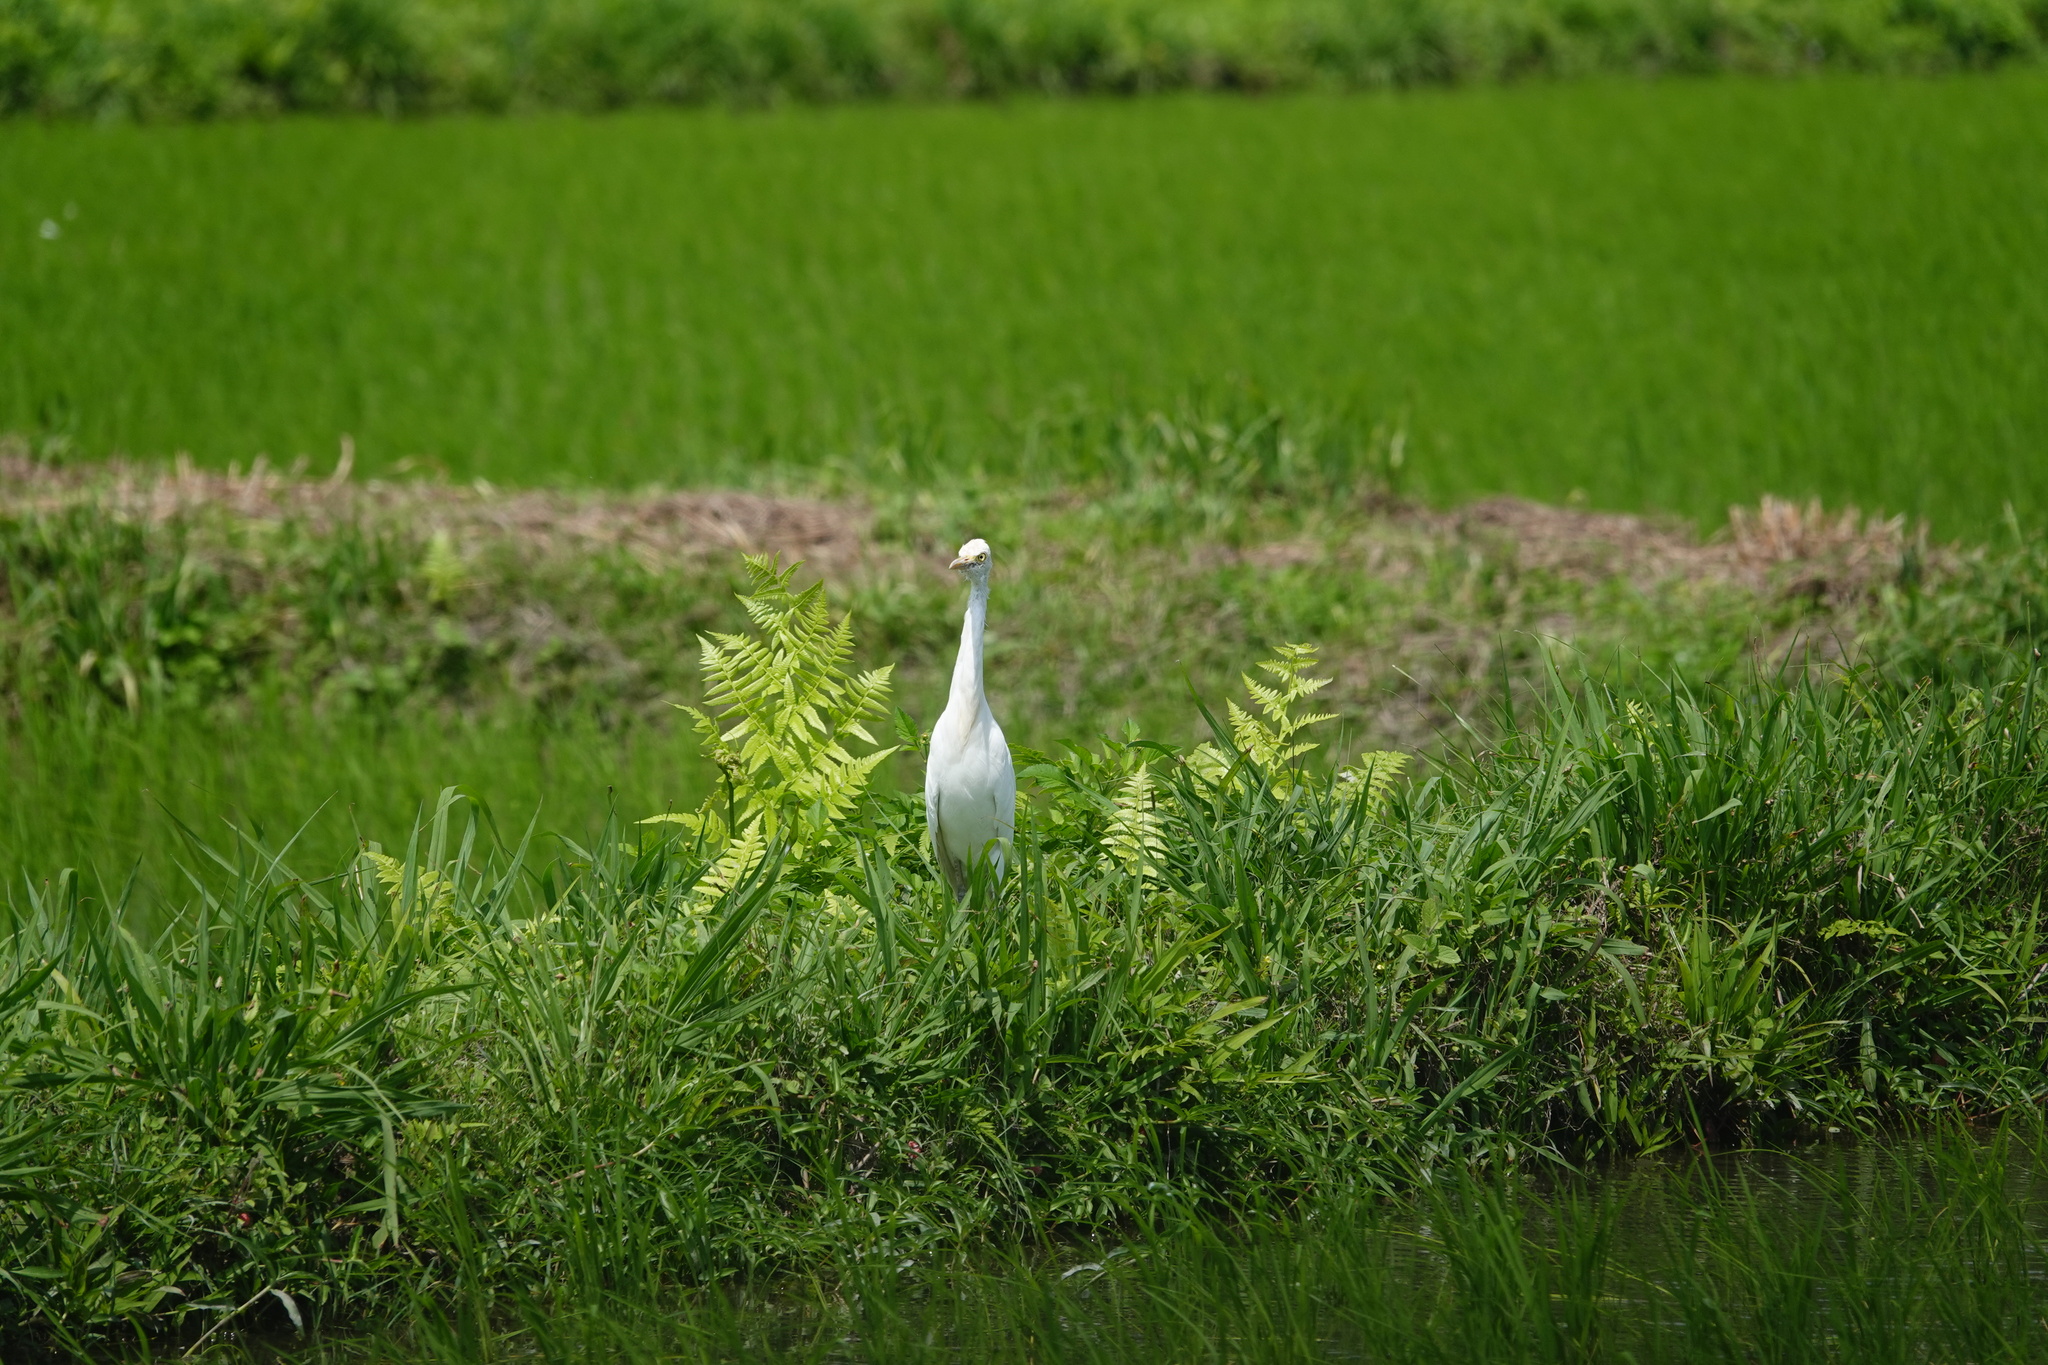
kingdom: Animalia
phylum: Chordata
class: Aves
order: Pelecaniformes
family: Ardeidae
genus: Bubulcus
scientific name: Bubulcus coromandus
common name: Eastern cattle egret
